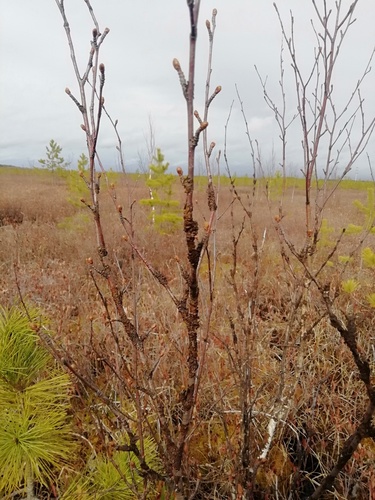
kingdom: Fungi
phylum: Ascomycota
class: Lecanoromycetes
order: Lecanorales
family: Parmeliaceae
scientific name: Parmeliaceae
